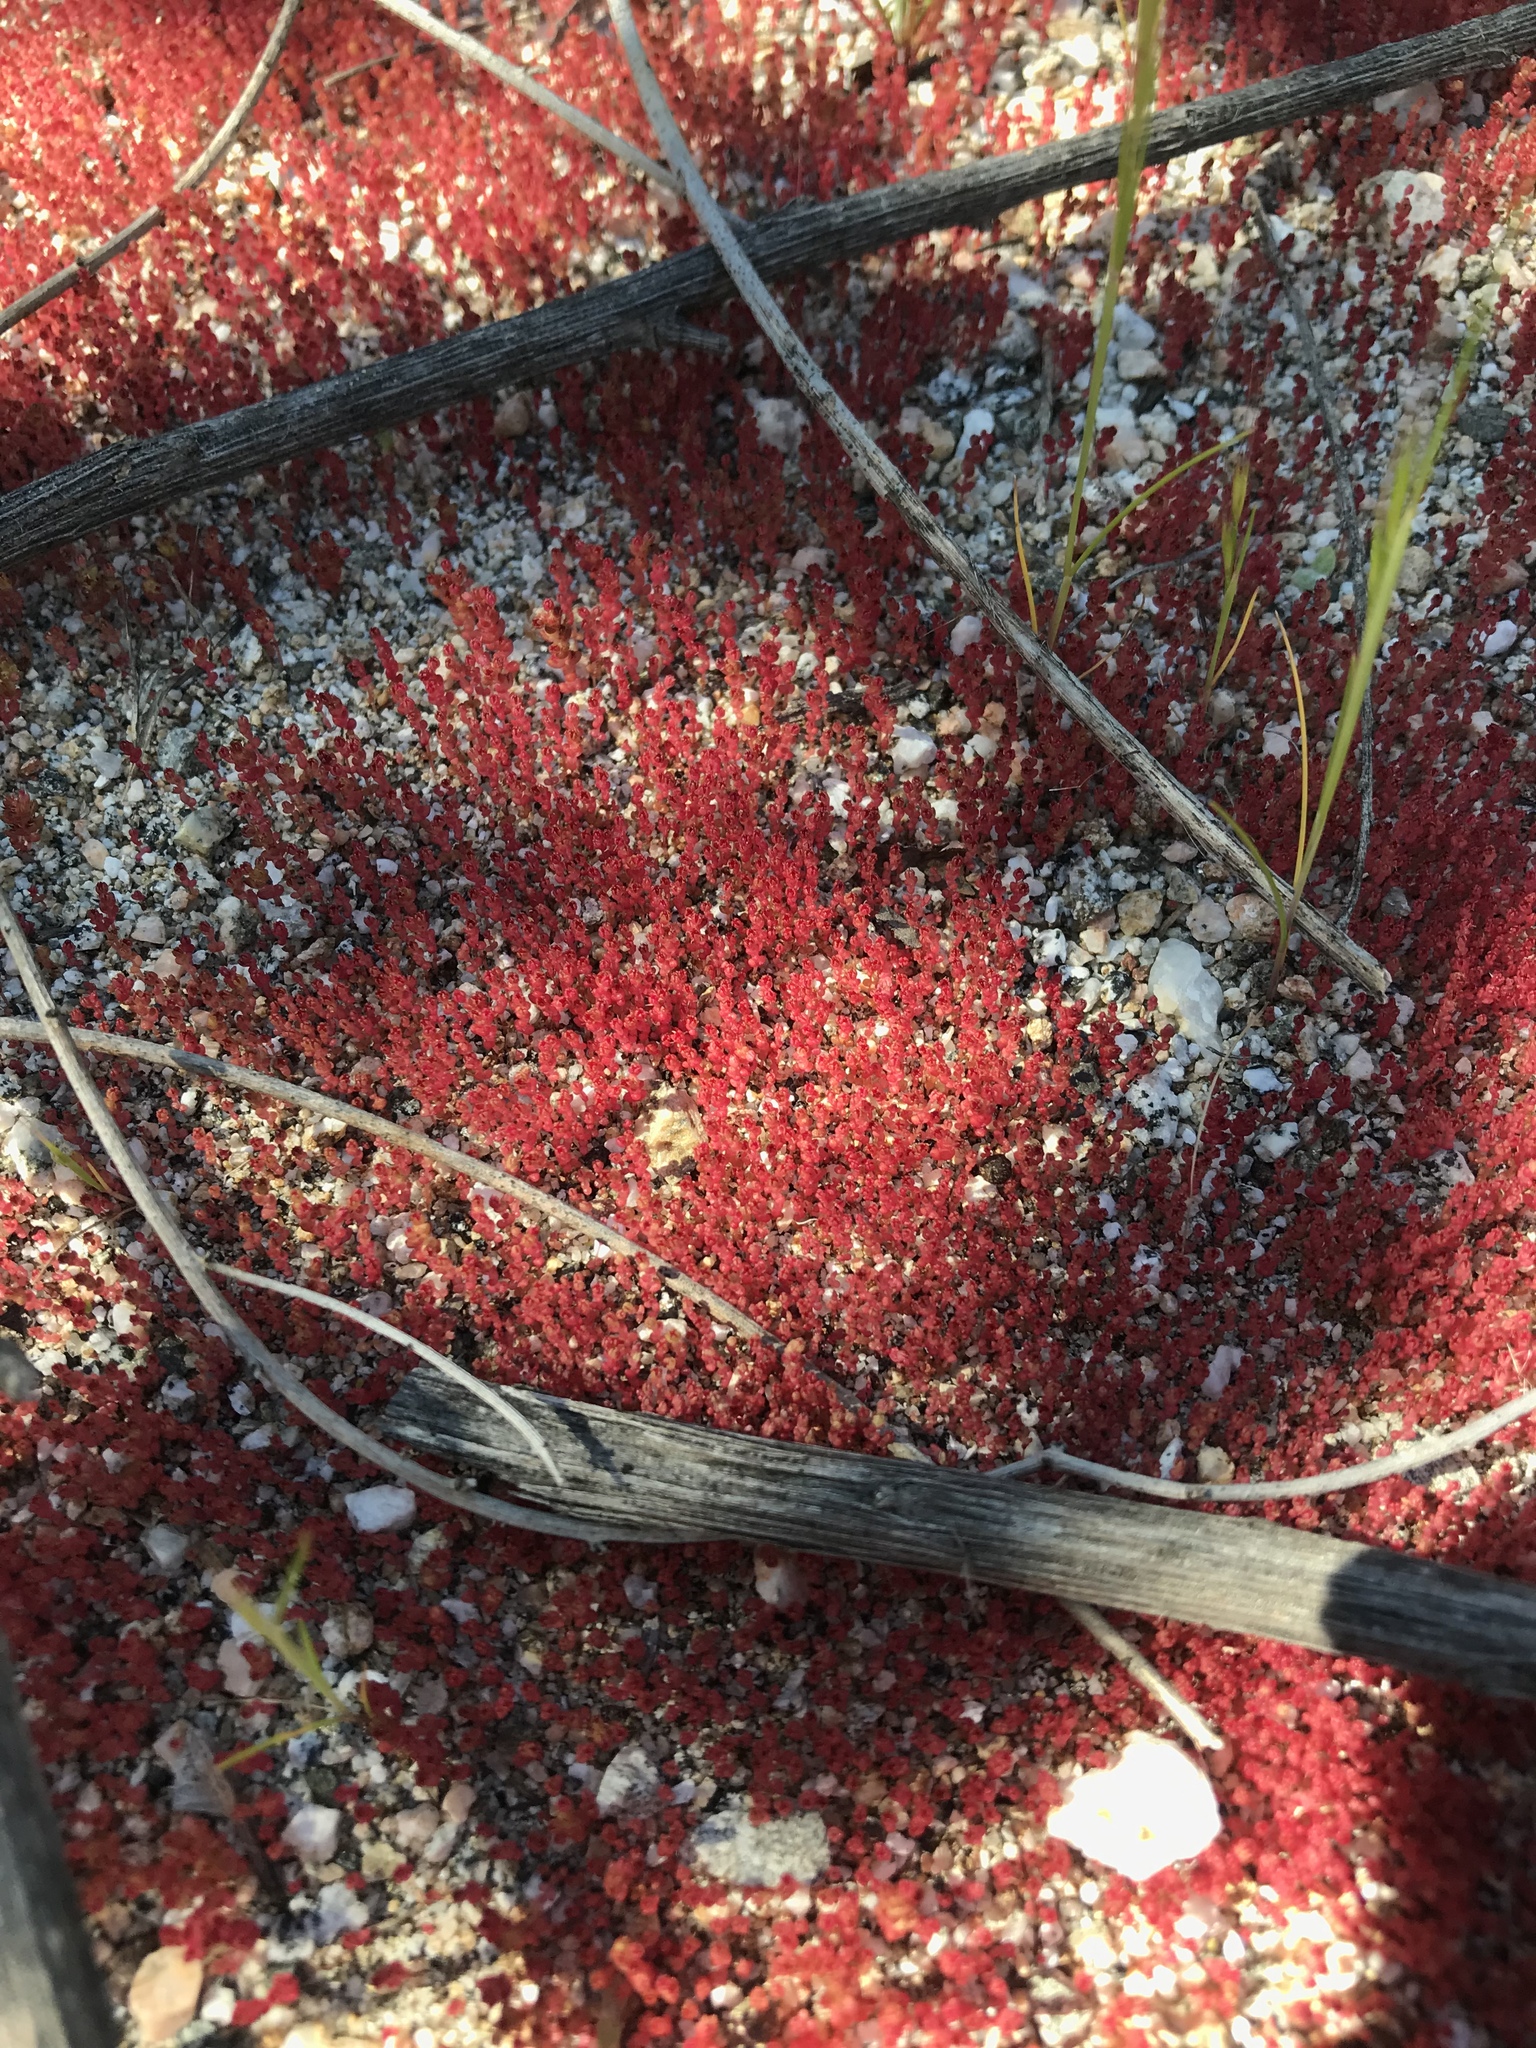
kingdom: Plantae
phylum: Tracheophyta
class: Magnoliopsida
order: Saxifragales
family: Crassulaceae
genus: Crassula
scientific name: Crassula connata
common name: Erect pygmyweed
